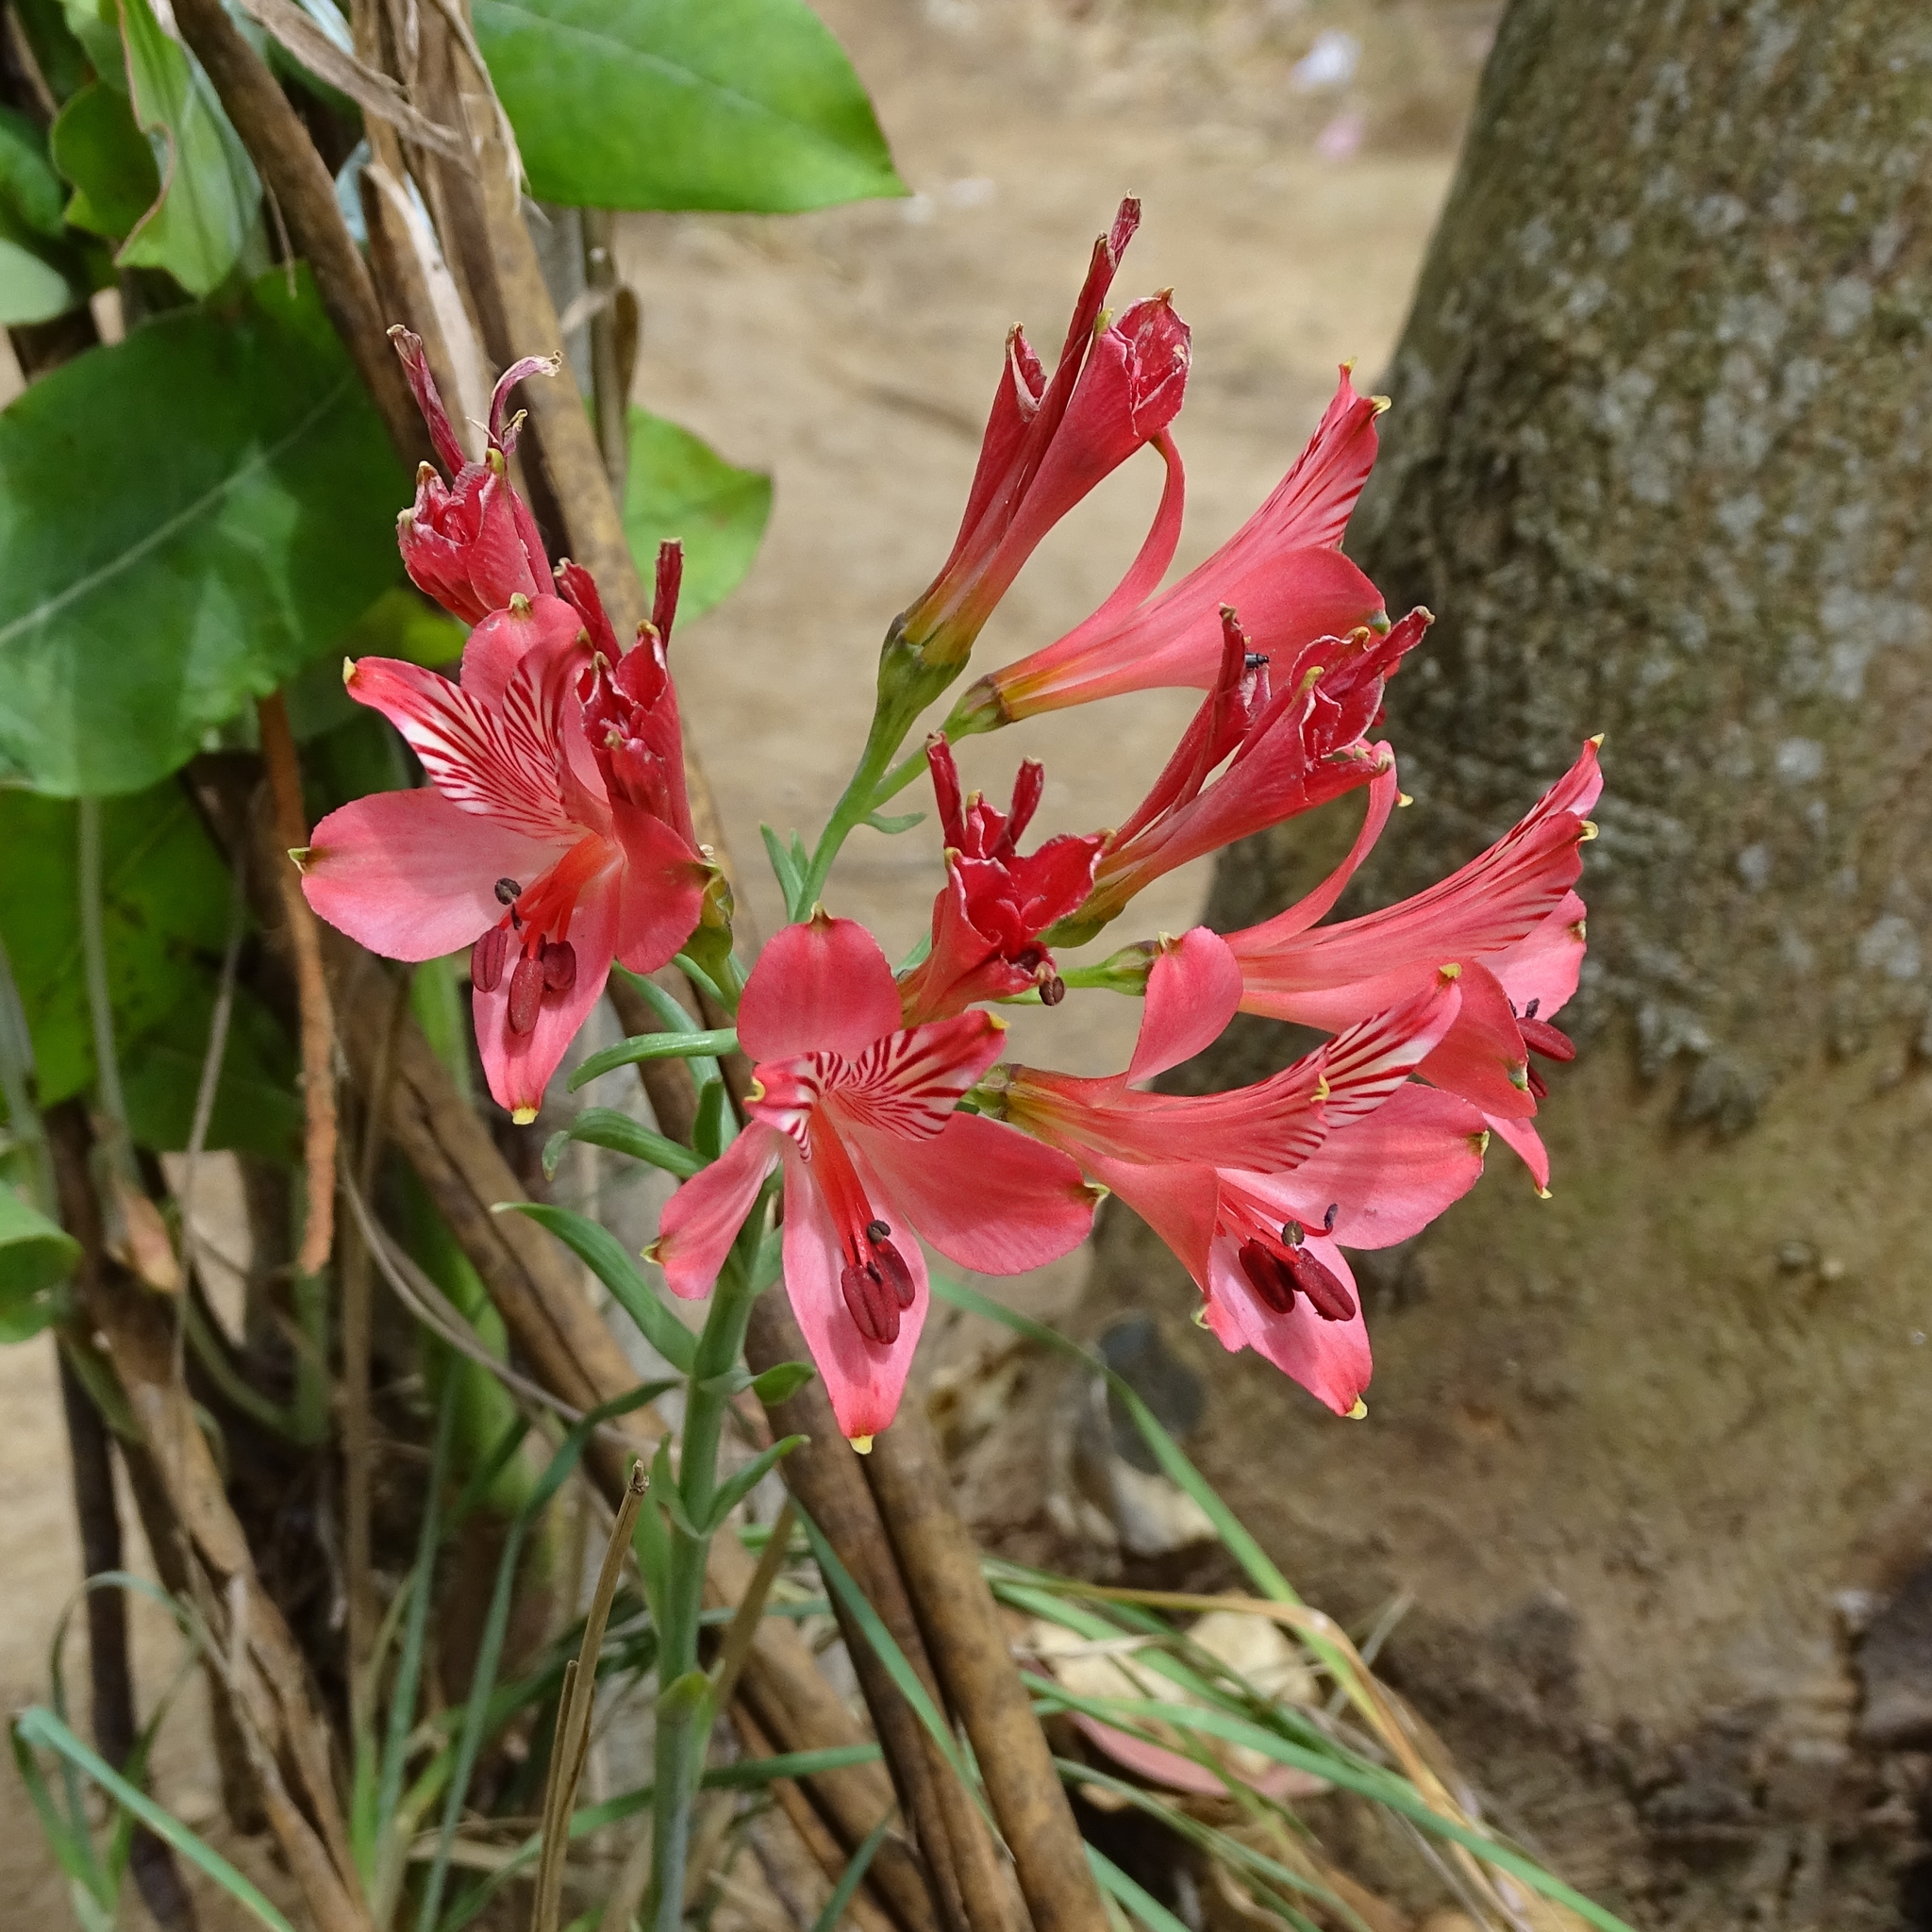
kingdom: Plantae
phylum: Tracheophyta
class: Liliopsida
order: Liliales
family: Alstroemeriaceae
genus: Alstroemeria
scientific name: Alstroemeria ligtu
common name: St. martin's-flower
